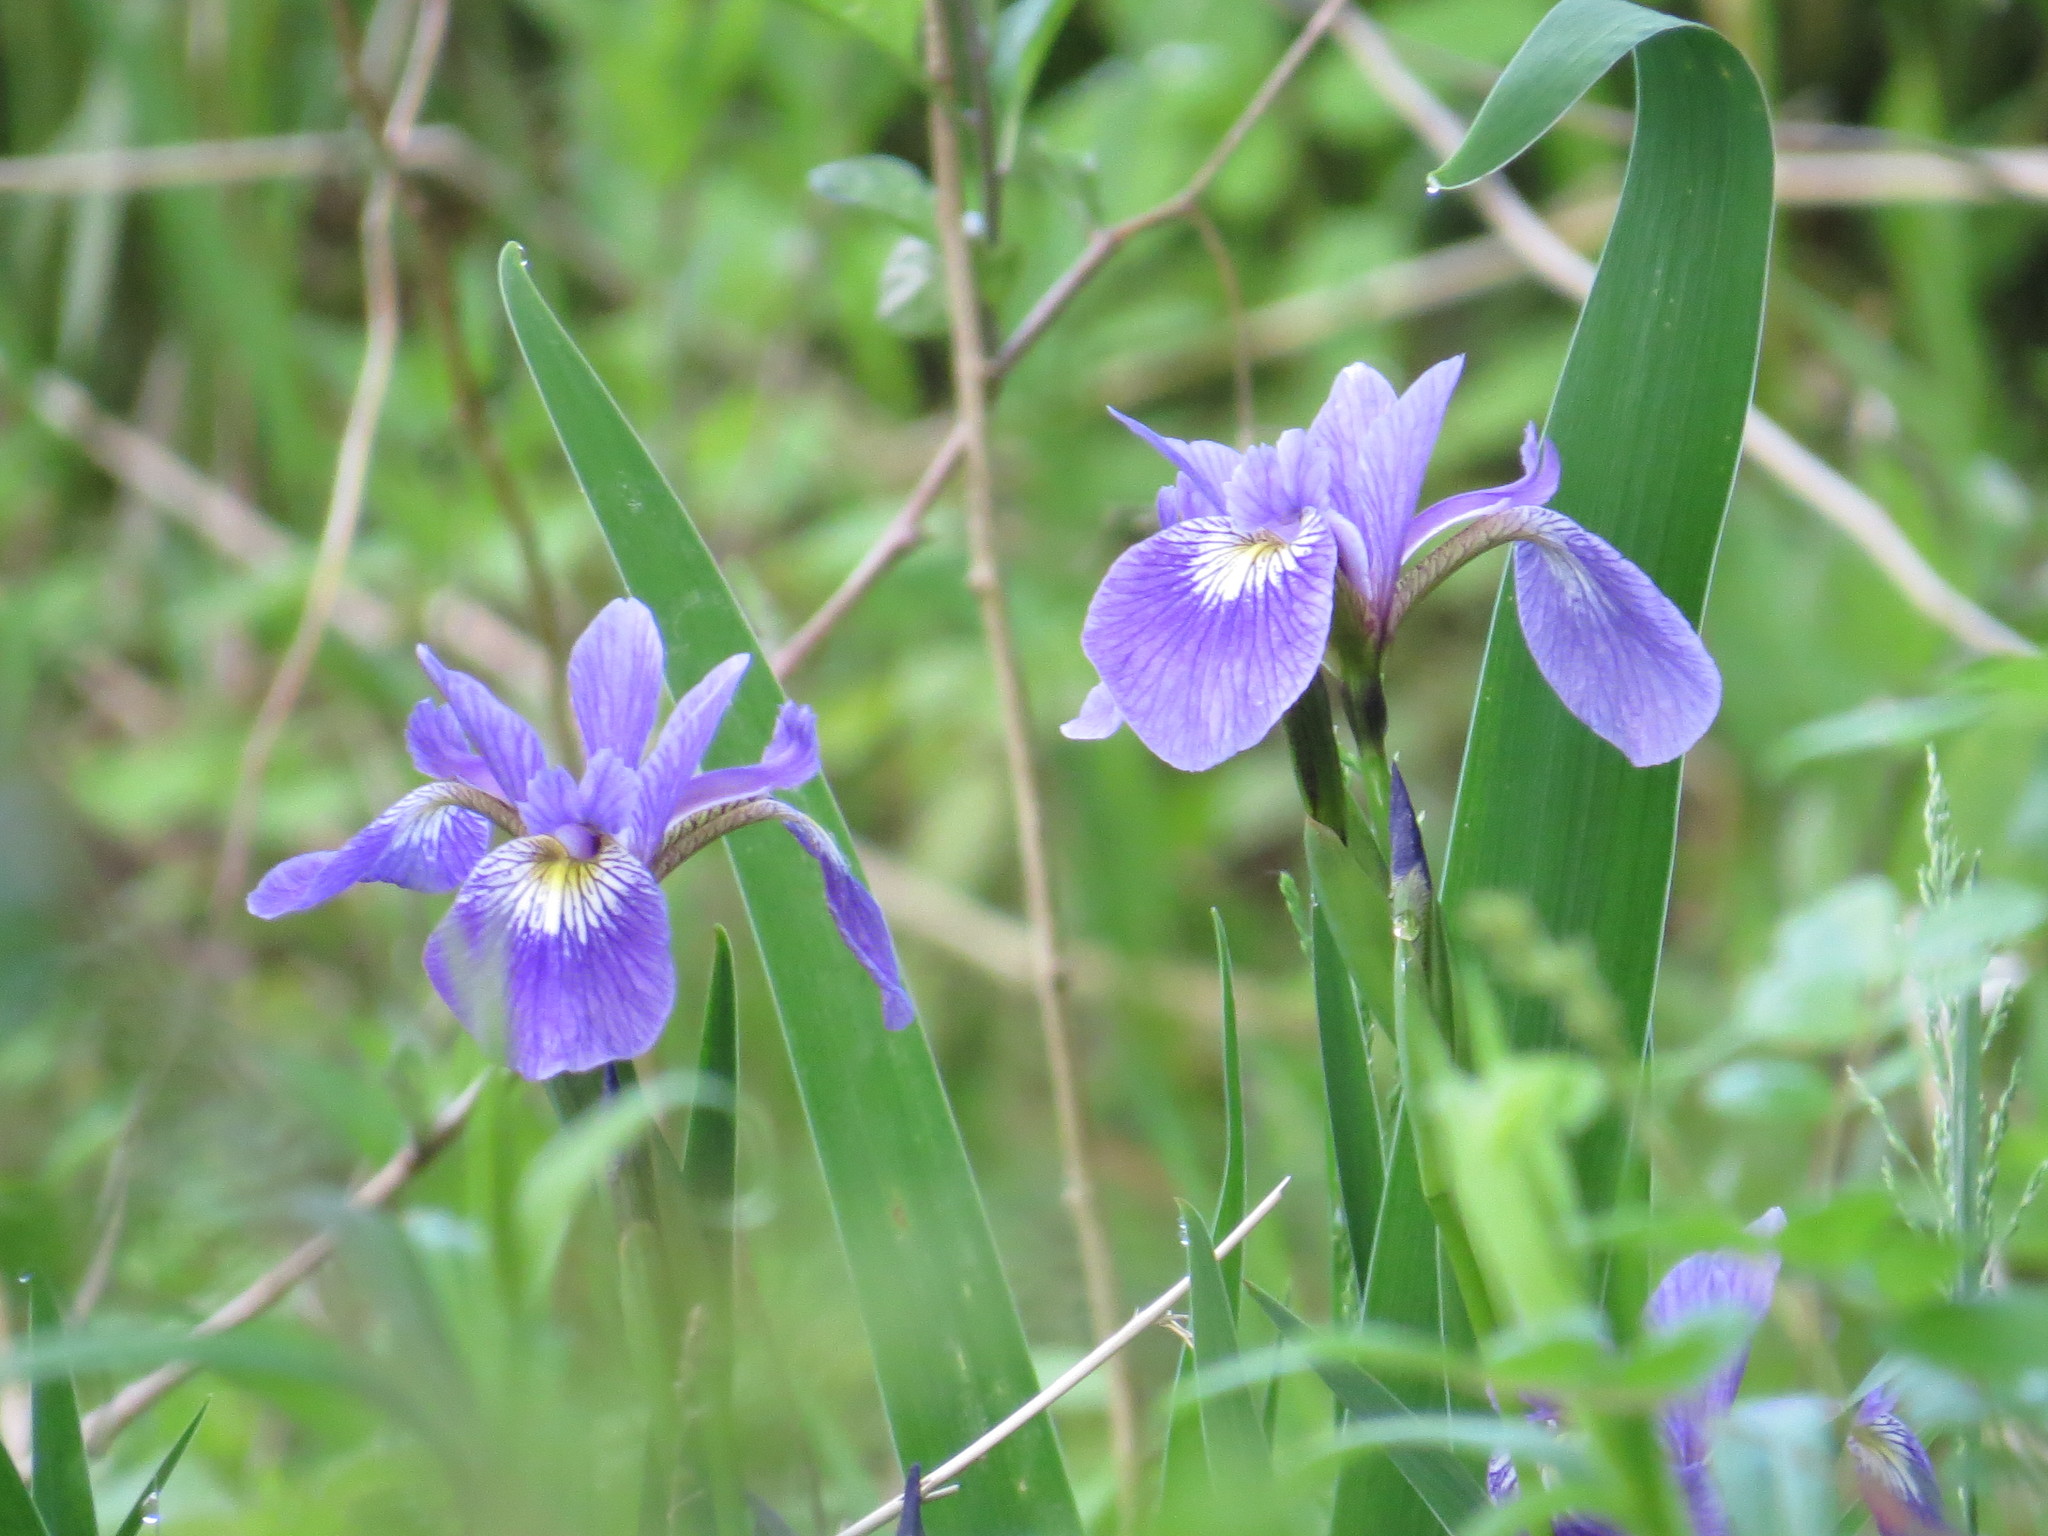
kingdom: Plantae
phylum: Tracheophyta
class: Liliopsida
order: Asparagales
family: Iridaceae
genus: Iris
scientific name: Iris versicolor
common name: Purple iris
